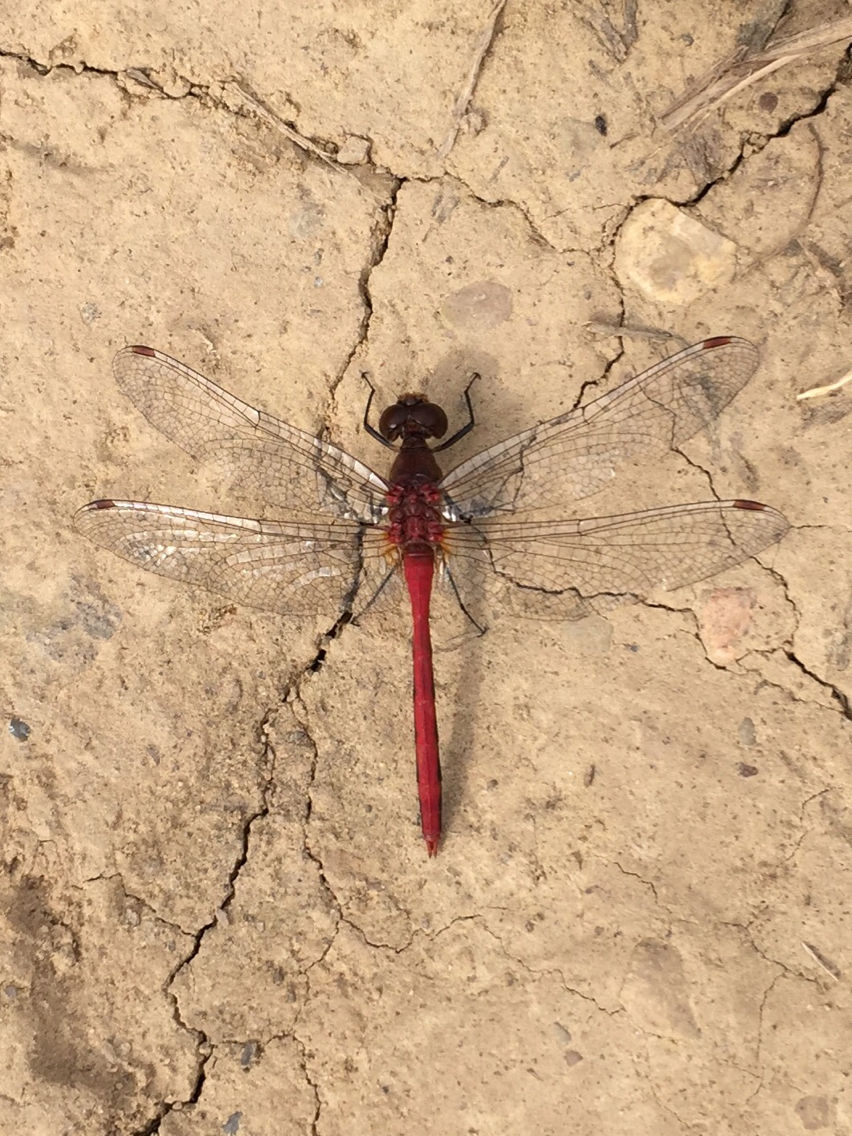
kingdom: Animalia
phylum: Arthropoda
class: Insecta
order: Odonata
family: Libellulidae
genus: Sympetrum
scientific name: Sympetrum
